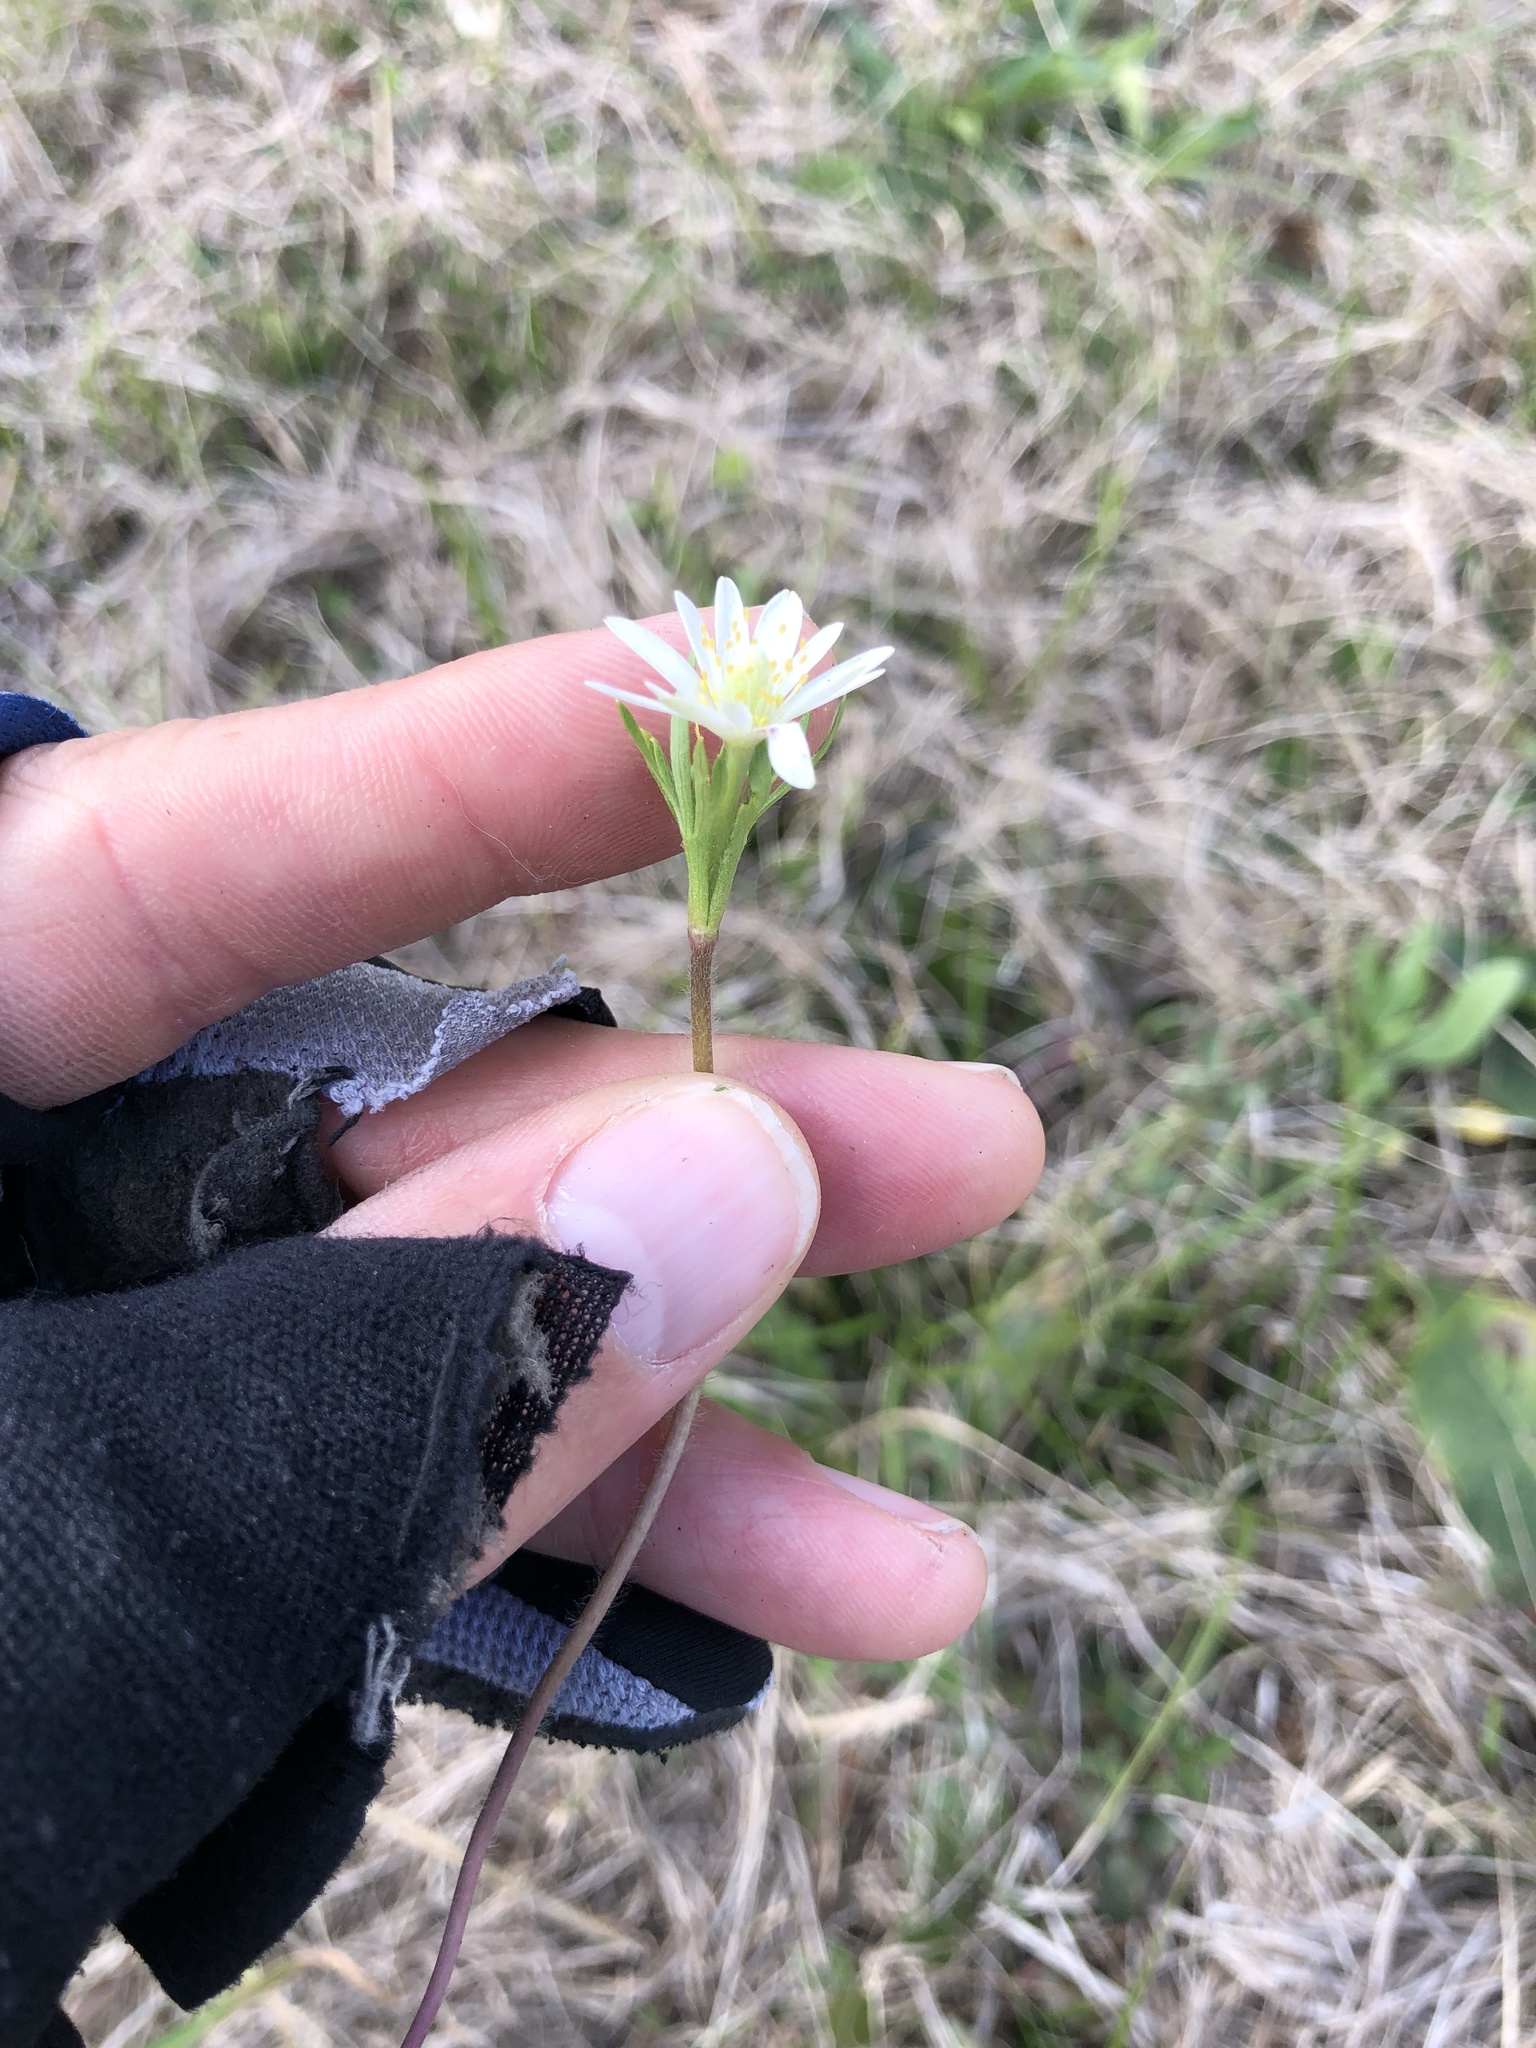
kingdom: Plantae
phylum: Tracheophyta
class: Magnoliopsida
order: Ranunculales
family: Ranunculaceae
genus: Anemone
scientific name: Anemone berlandieri
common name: Ten-petal anemone
